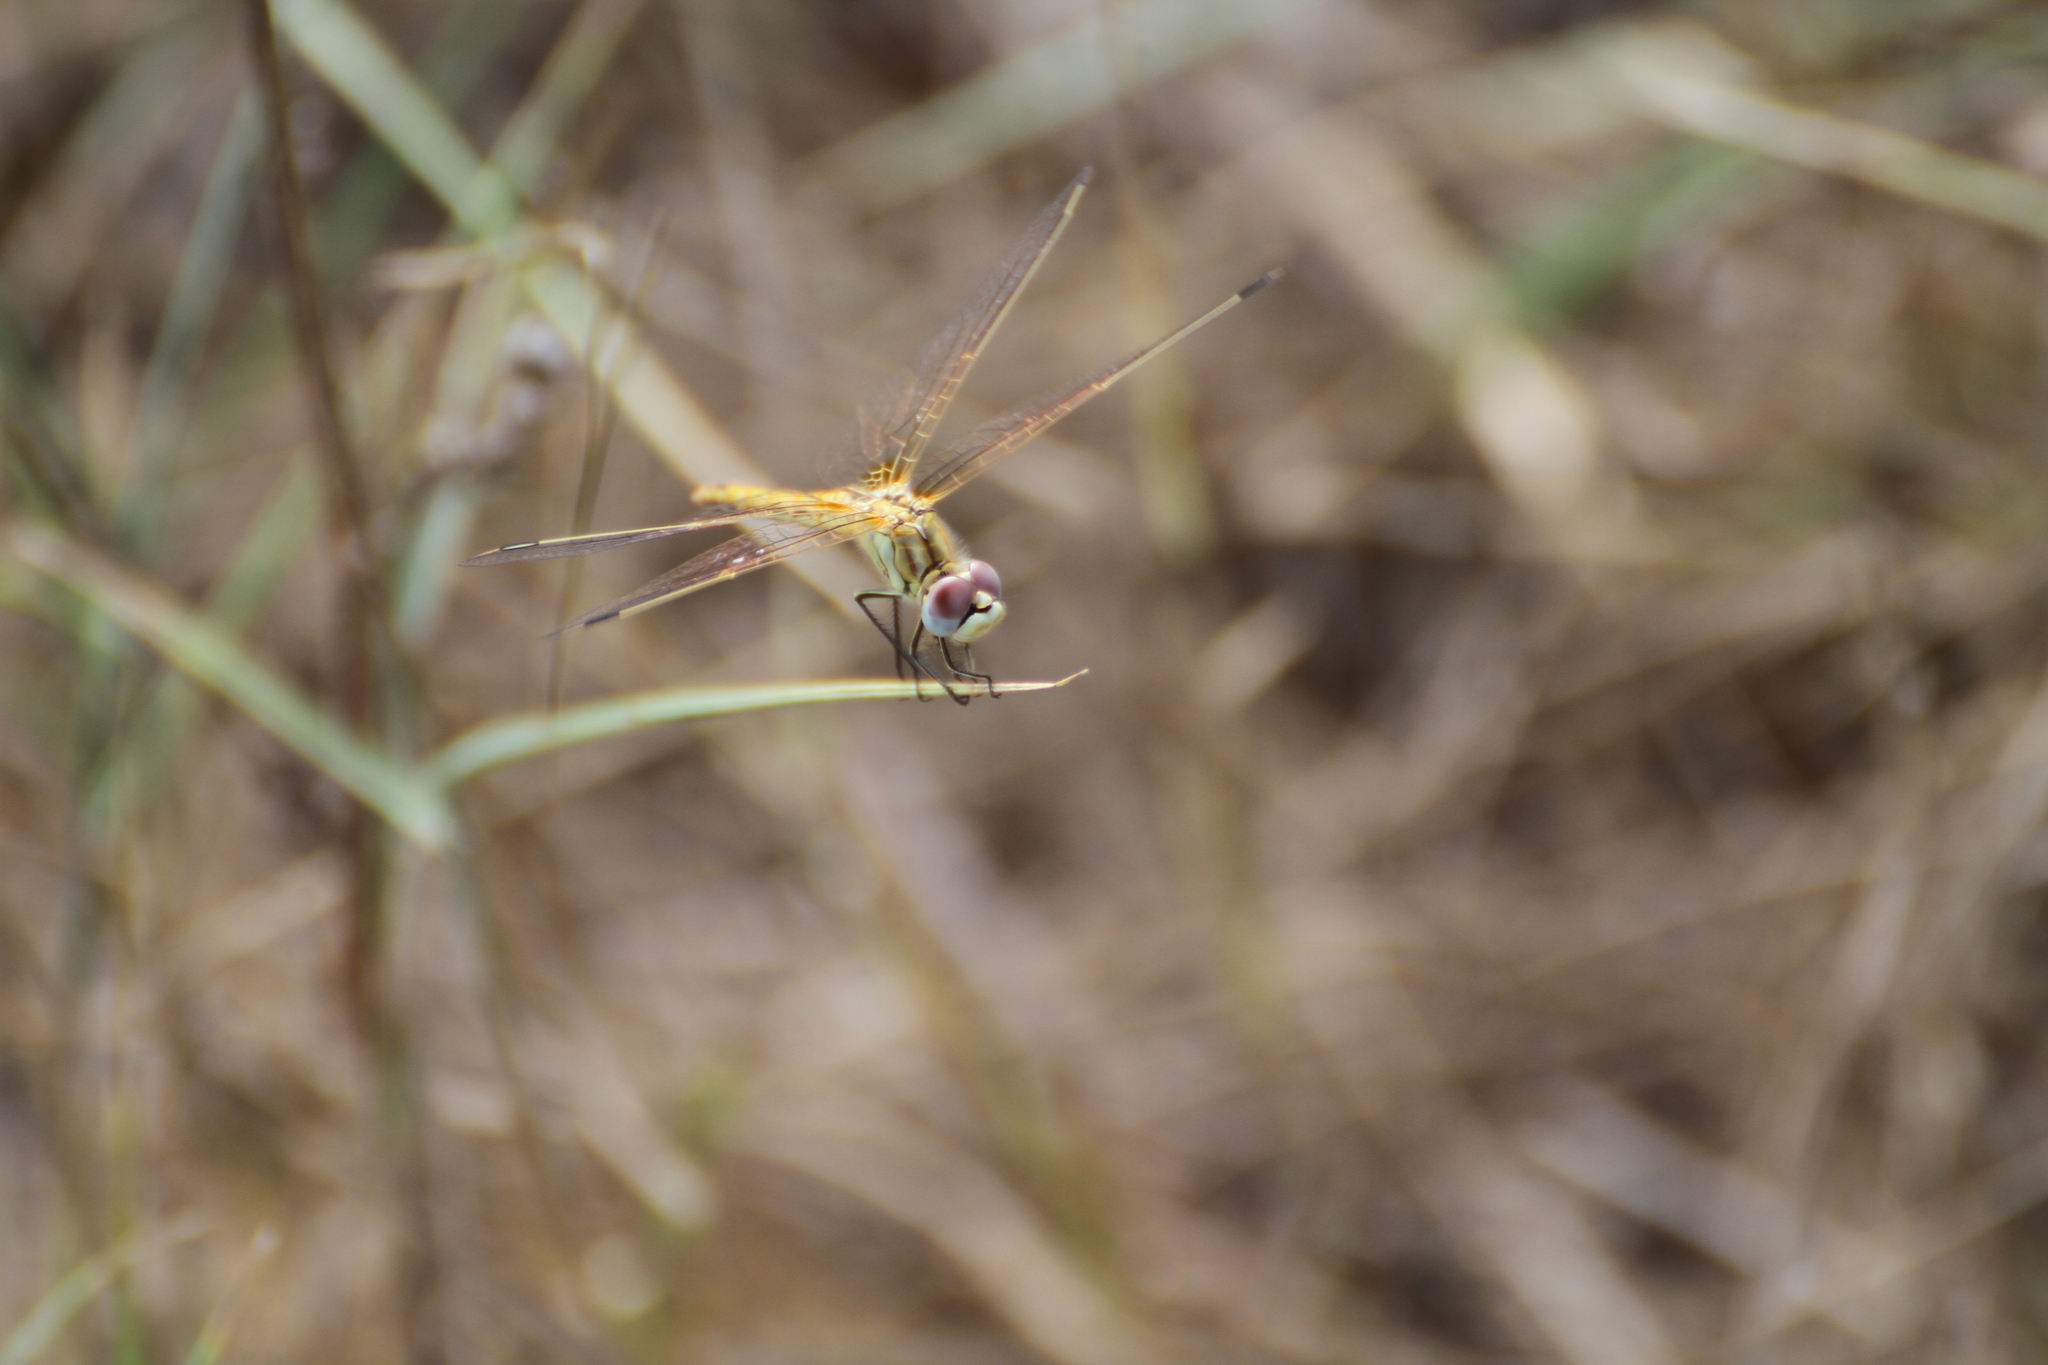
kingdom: Animalia
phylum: Arthropoda
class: Insecta
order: Odonata
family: Libellulidae
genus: Sympetrum
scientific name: Sympetrum fonscolombii
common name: Red-veined darter
